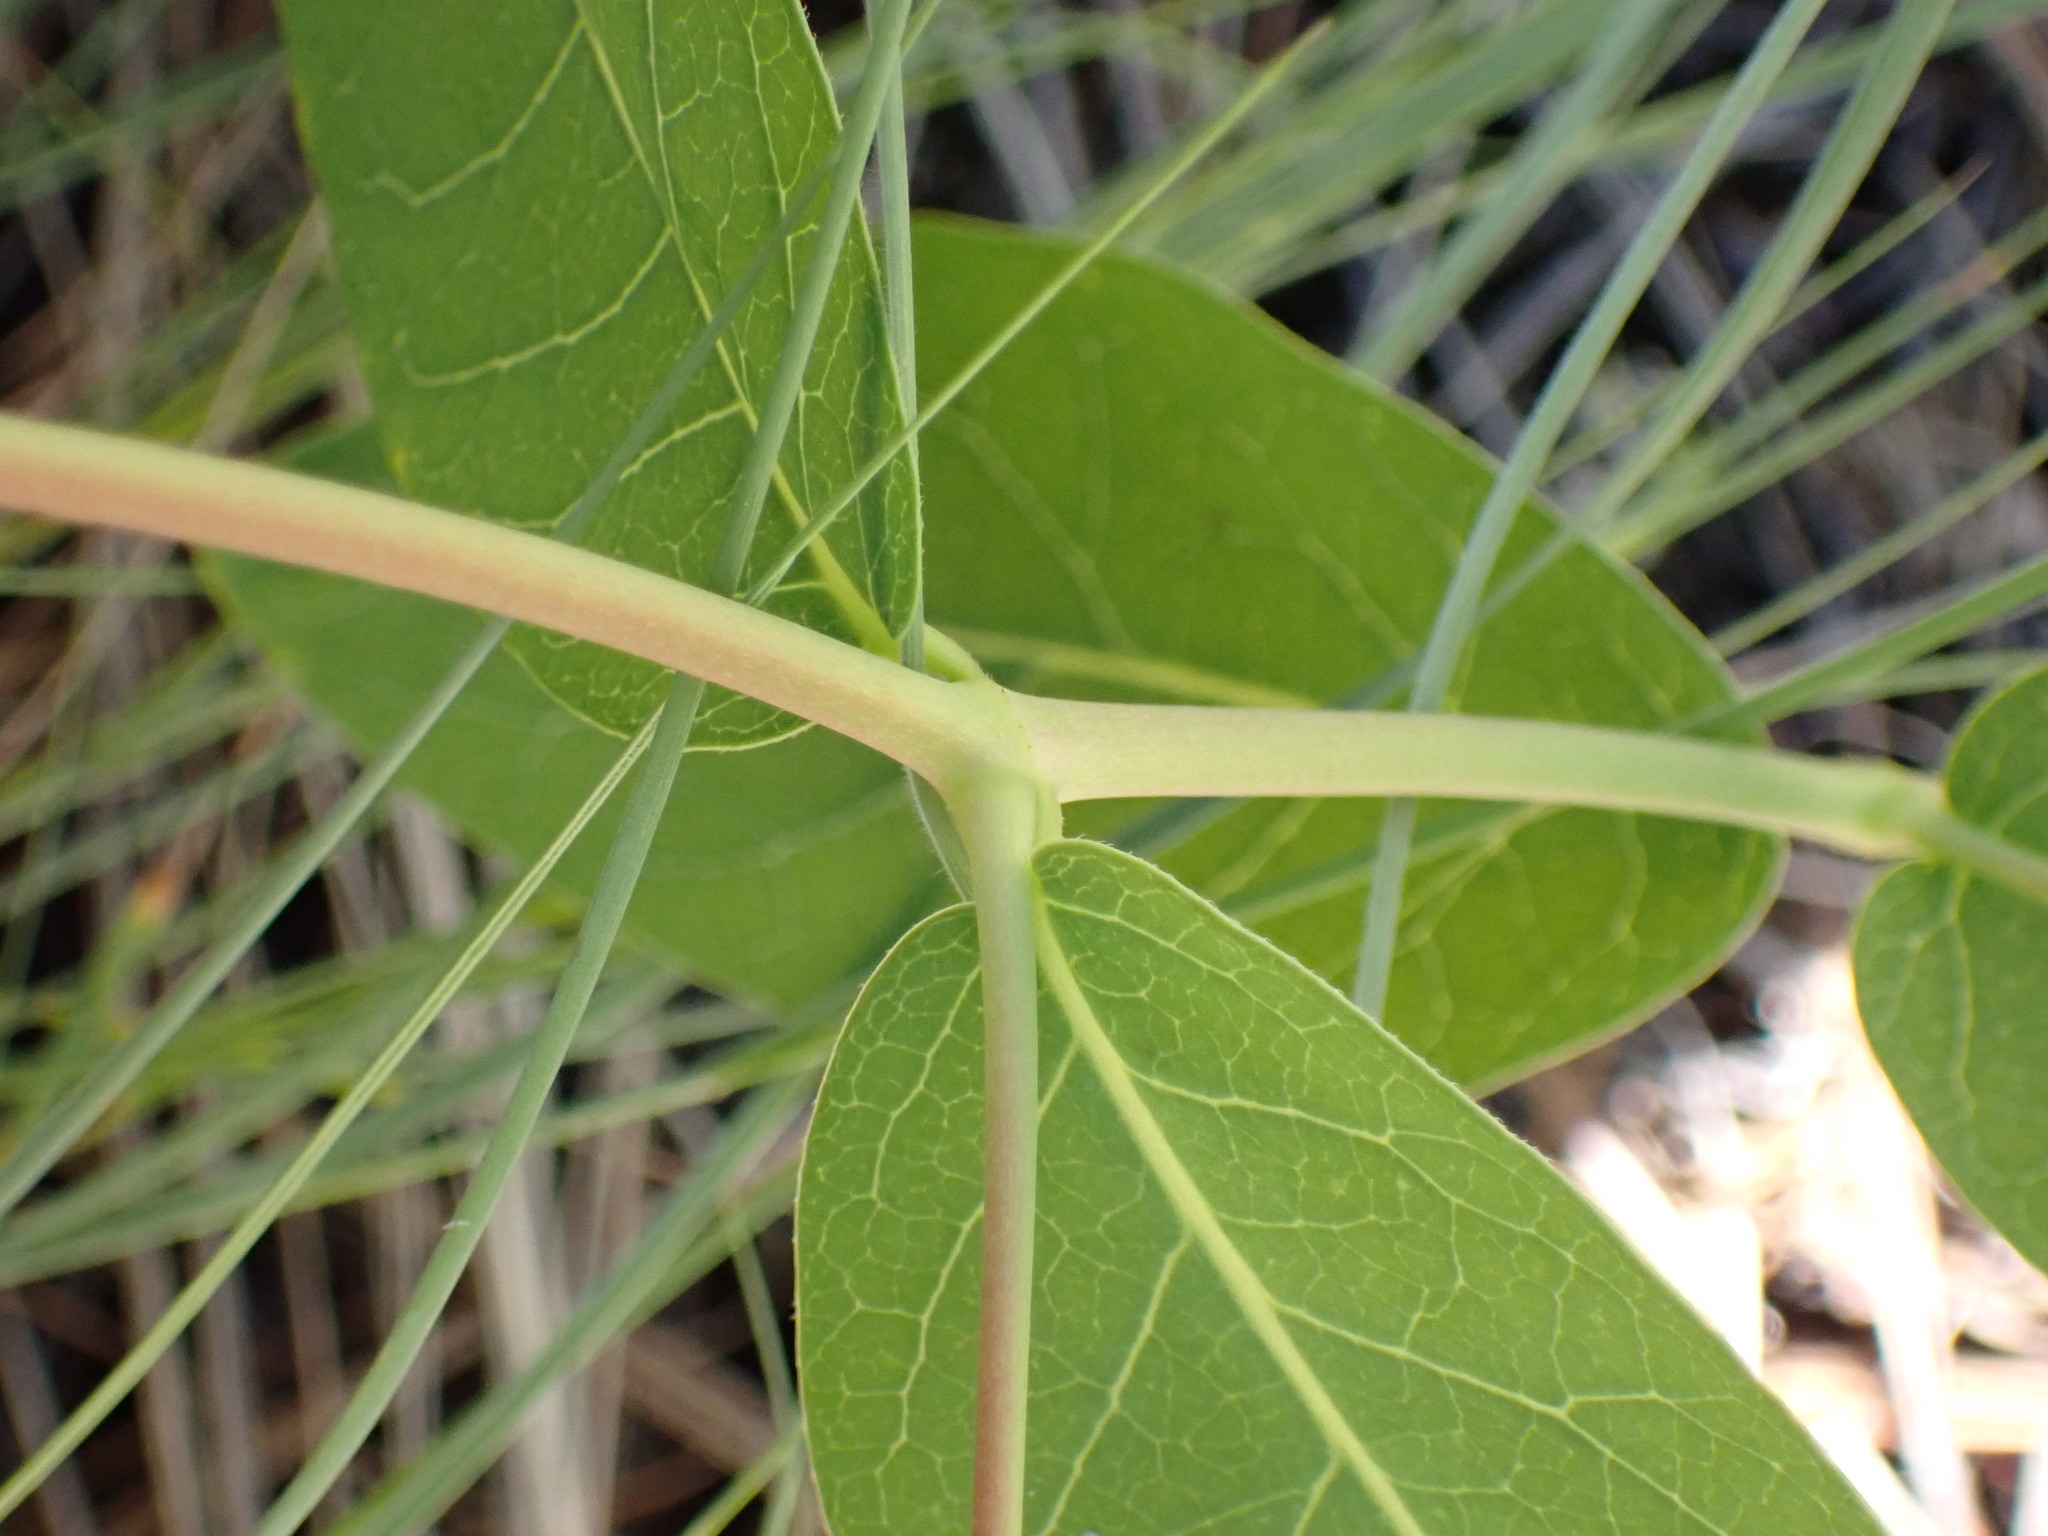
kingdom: Plantae
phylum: Tracheophyta
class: Magnoliopsida
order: Gentianales
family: Apocynaceae
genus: Apocynum
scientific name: Apocynum androsaemifolium
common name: Spreading dogbane
